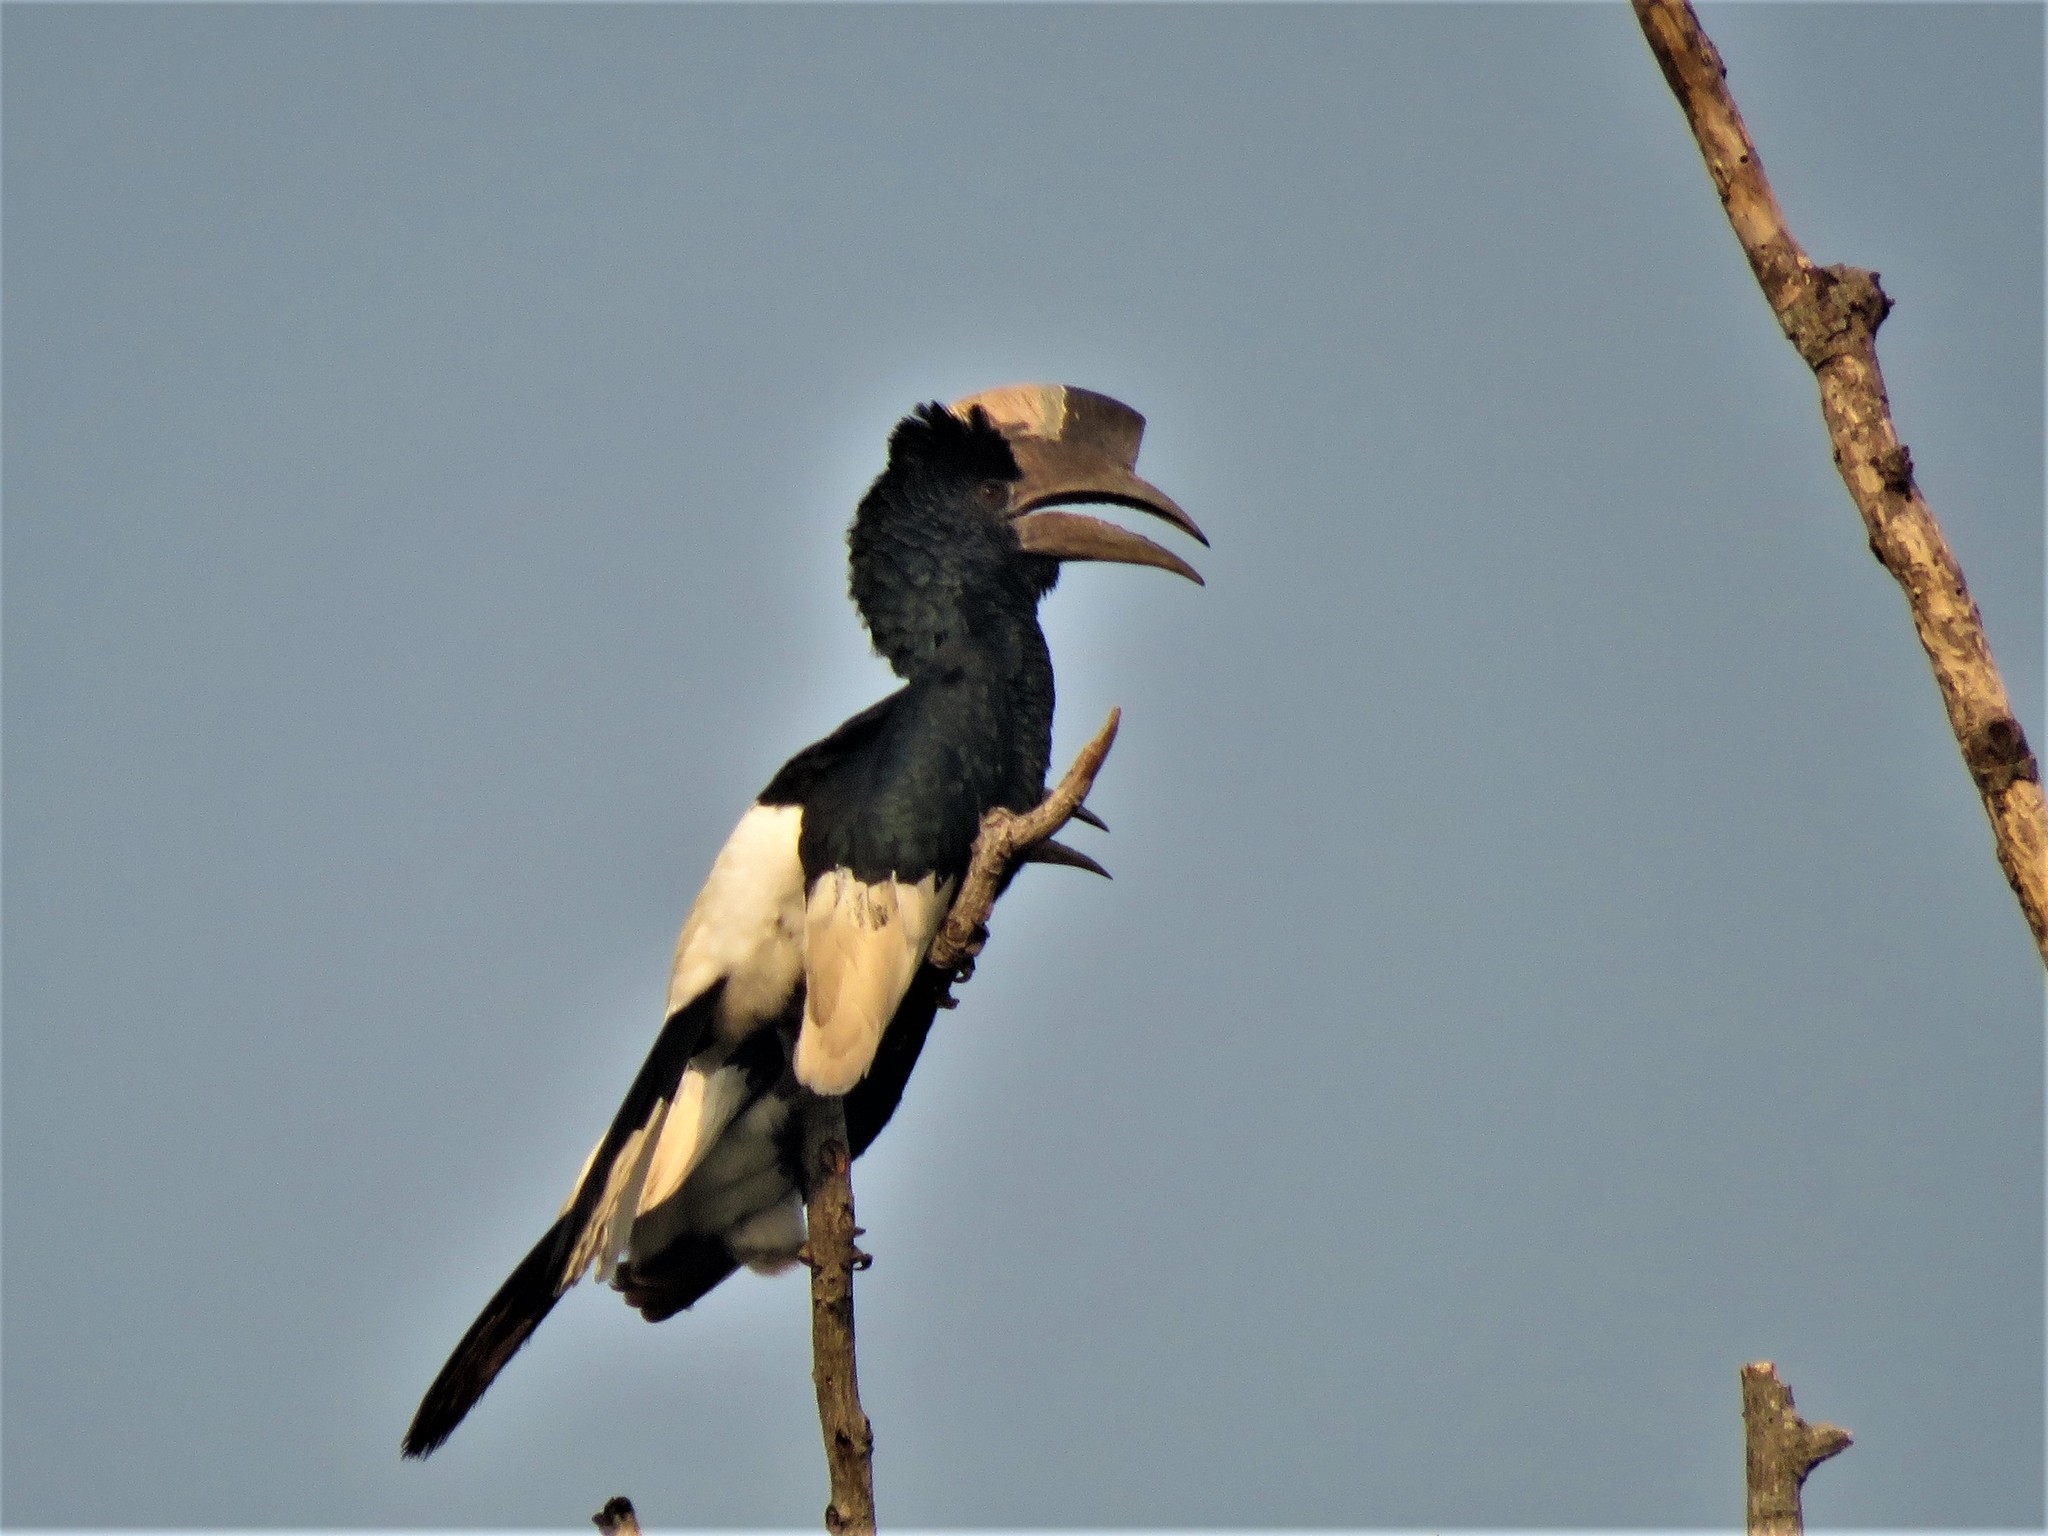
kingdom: Animalia
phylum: Chordata
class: Aves
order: Bucerotiformes
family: Bucerotidae
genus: Bycanistes
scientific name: Bycanistes subcylindricus
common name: Black-and-white-casqued hornbill
